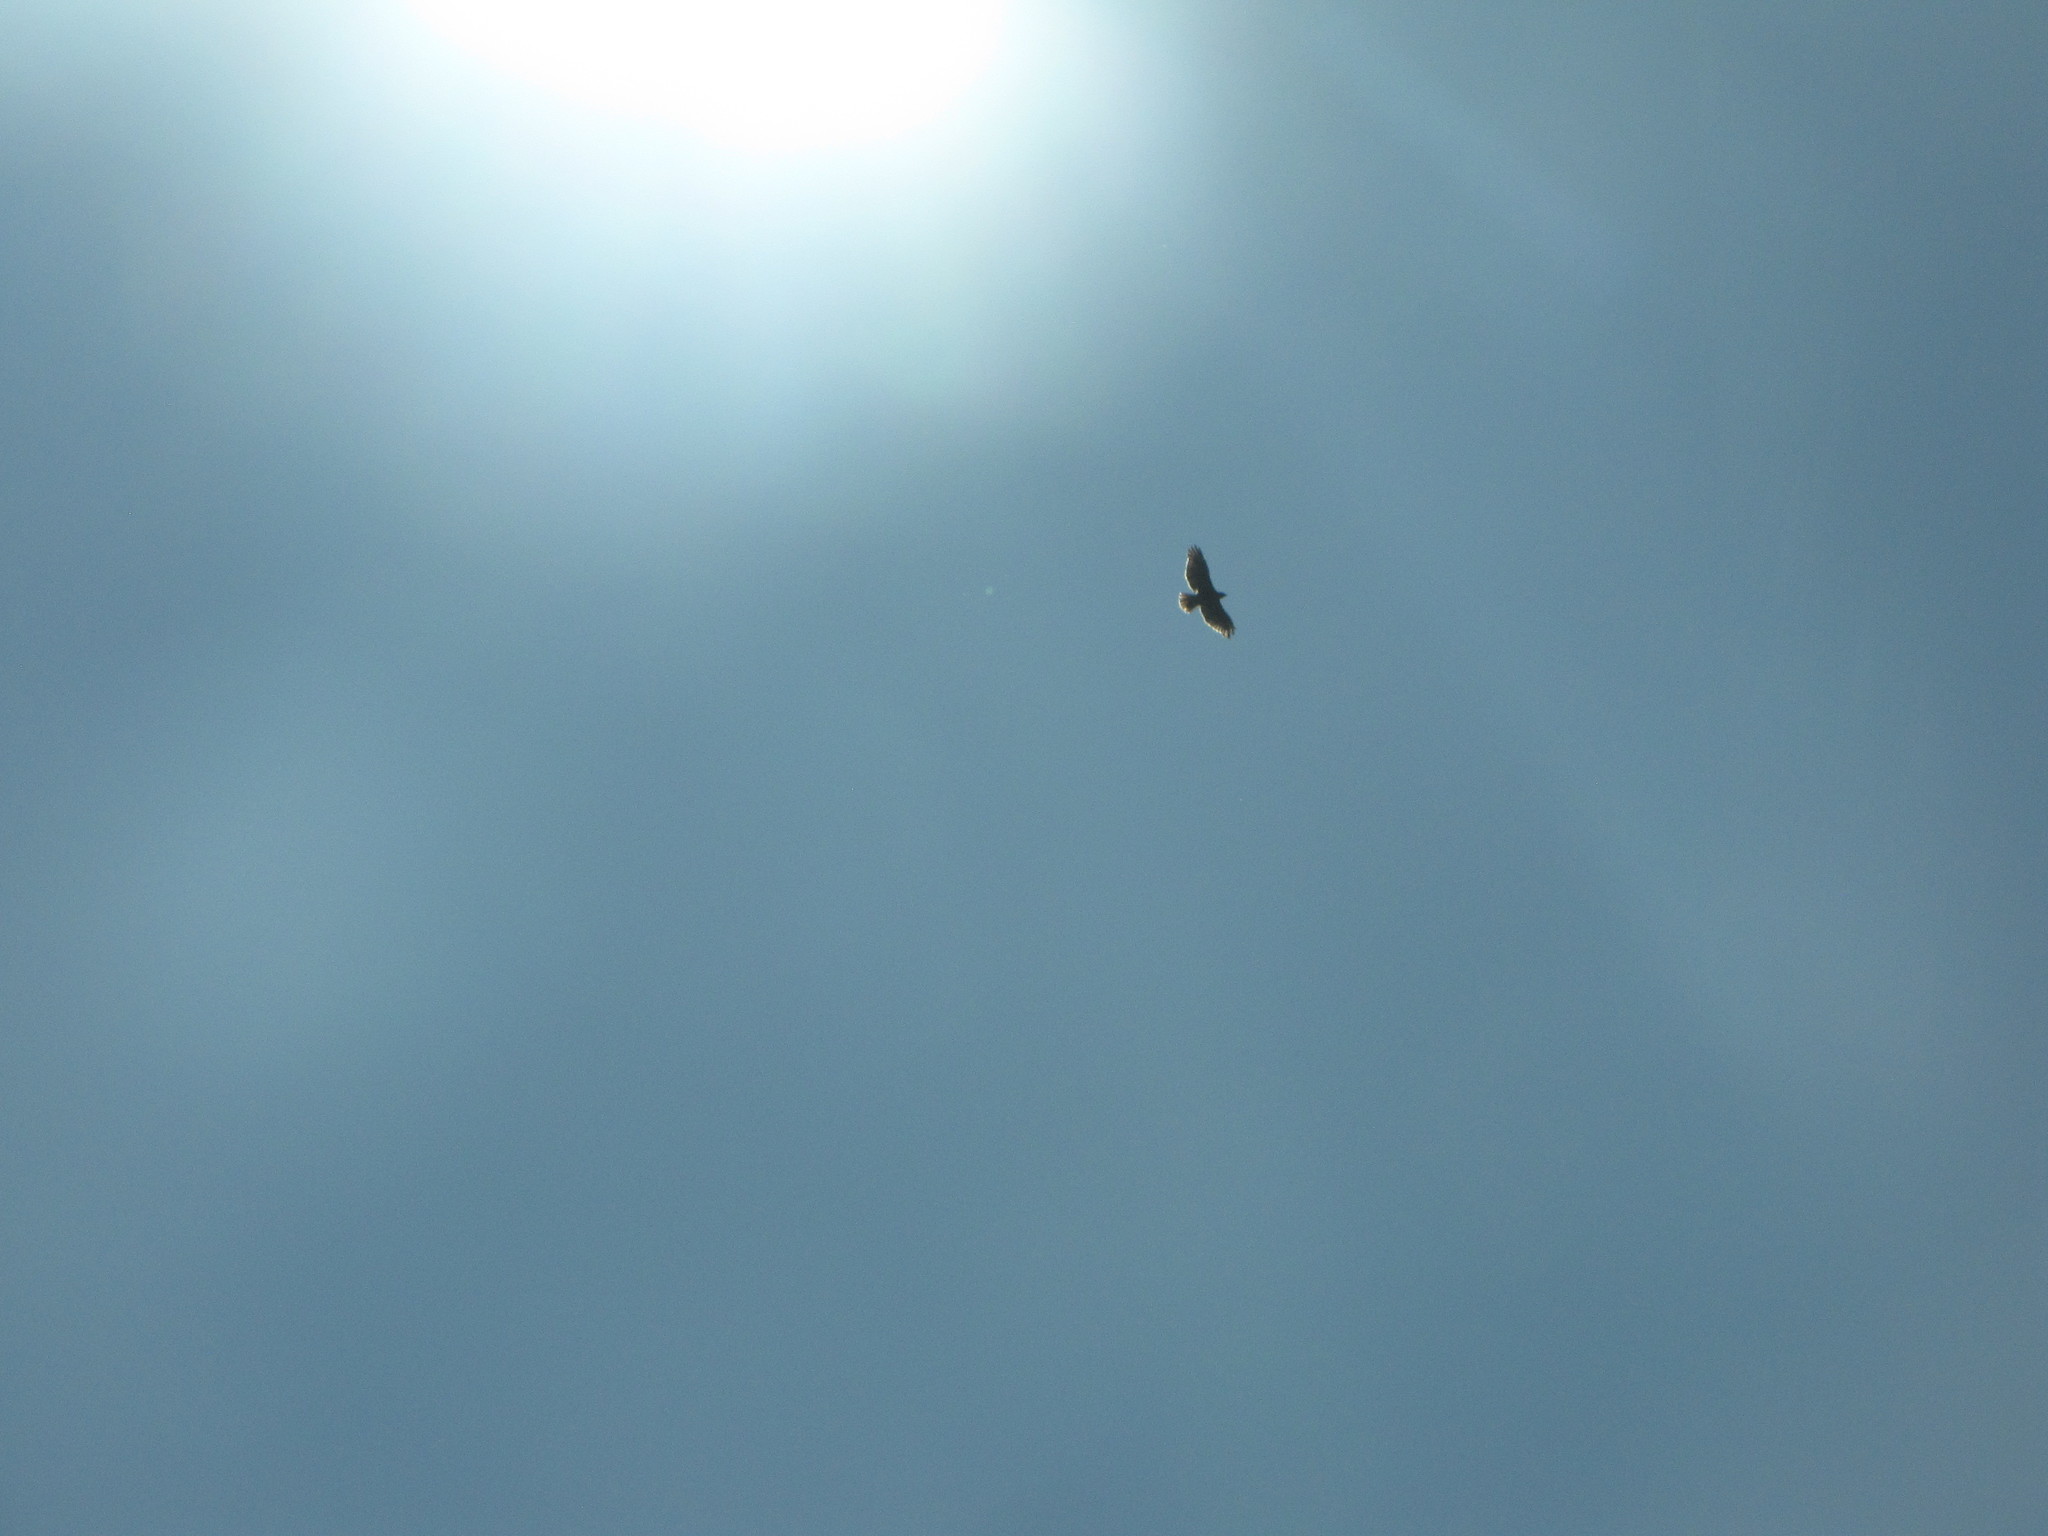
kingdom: Animalia
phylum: Chordata
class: Aves
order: Accipitriformes
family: Accipitridae
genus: Haliaeetus
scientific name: Haliaeetus leucocephalus
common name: Bald eagle
